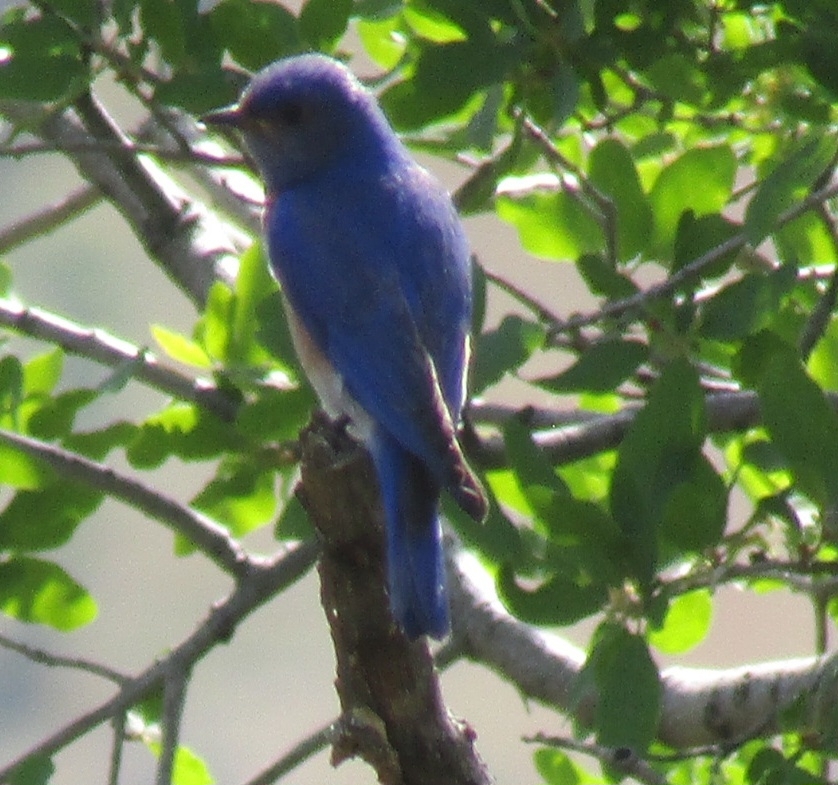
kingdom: Animalia
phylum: Chordata
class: Aves
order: Passeriformes
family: Turdidae
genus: Sialia
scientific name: Sialia mexicana
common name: Western bluebird
